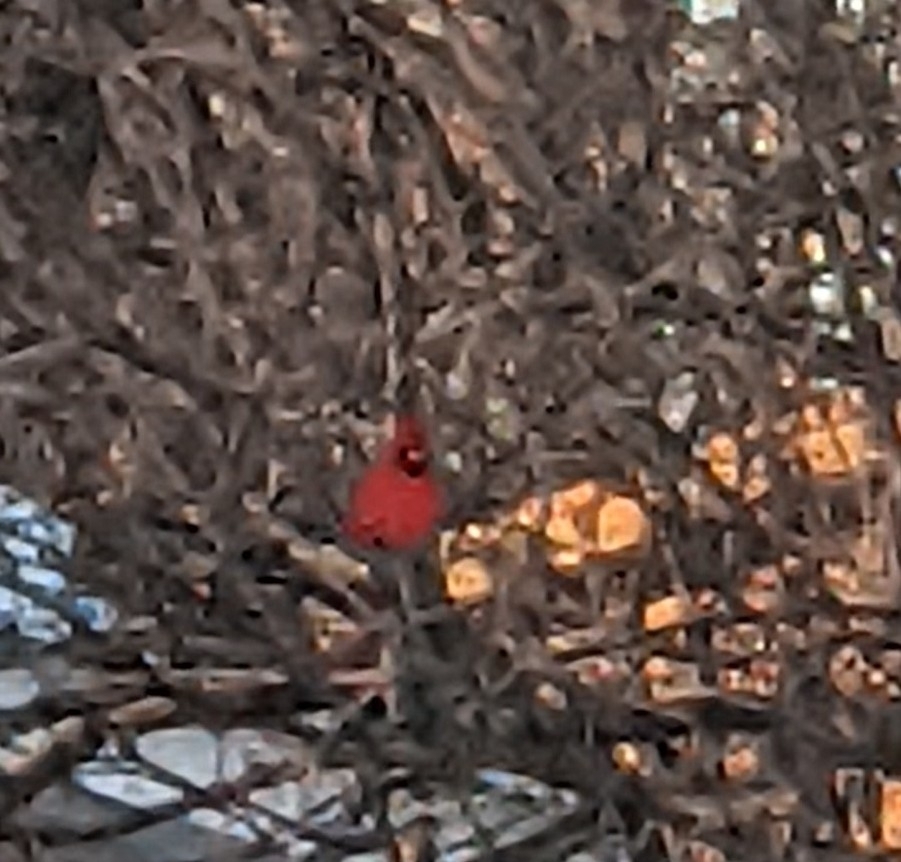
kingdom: Animalia
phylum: Chordata
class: Aves
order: Passeriformes
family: Cardinalidae
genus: Cardinalis
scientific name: Cardinalis cardinalis
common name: Northern cardinal
